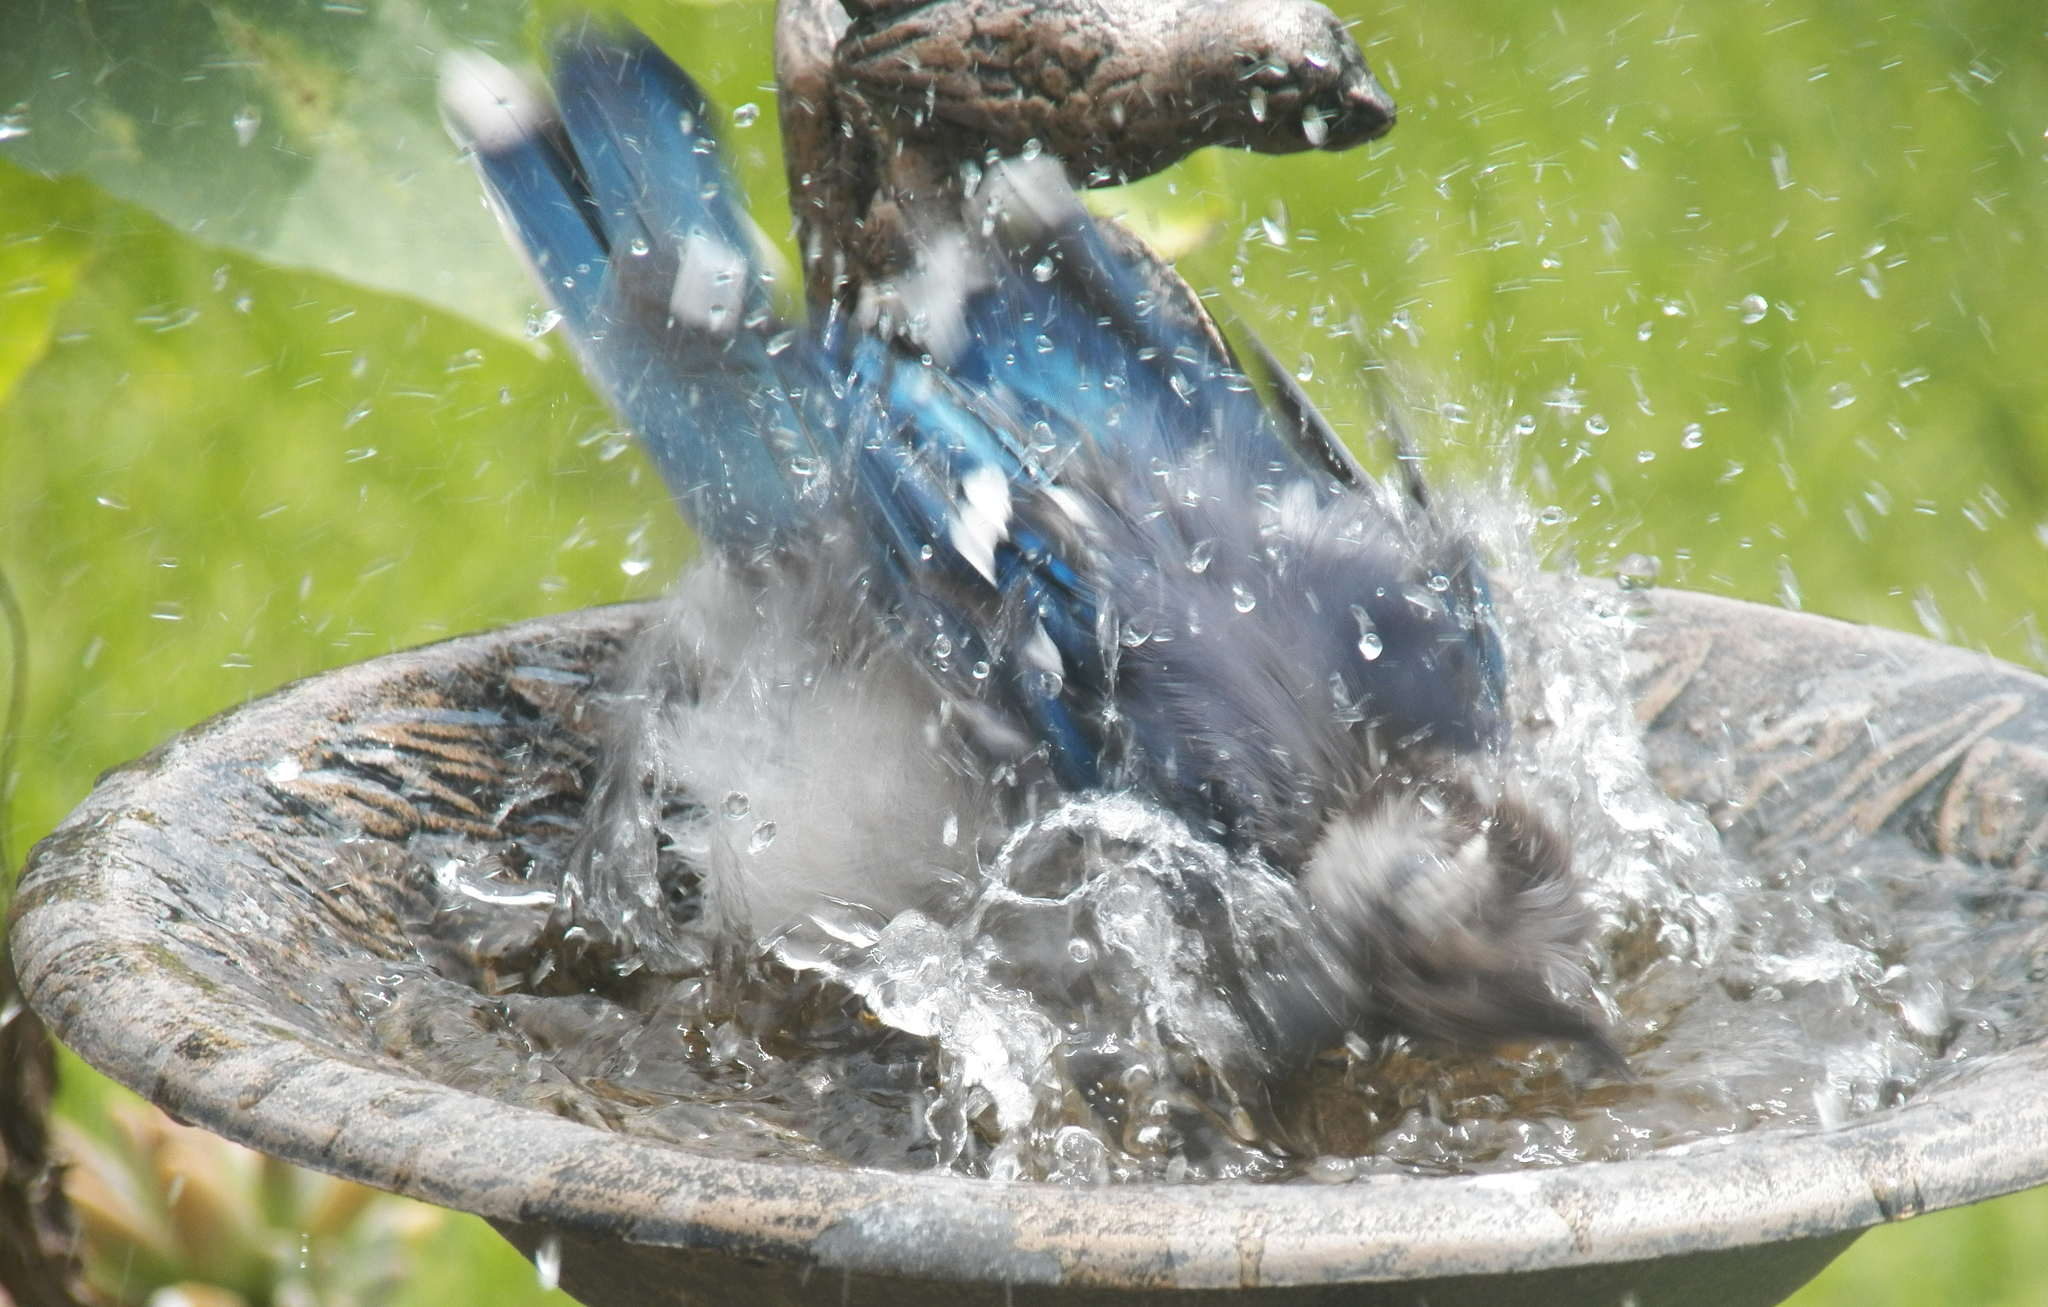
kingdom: Animalia
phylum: Chordata
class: Aves
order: Passeriformes
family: Corvidae
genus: Cyanocitta
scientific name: Cyanocitta cristata
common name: Blue jay
